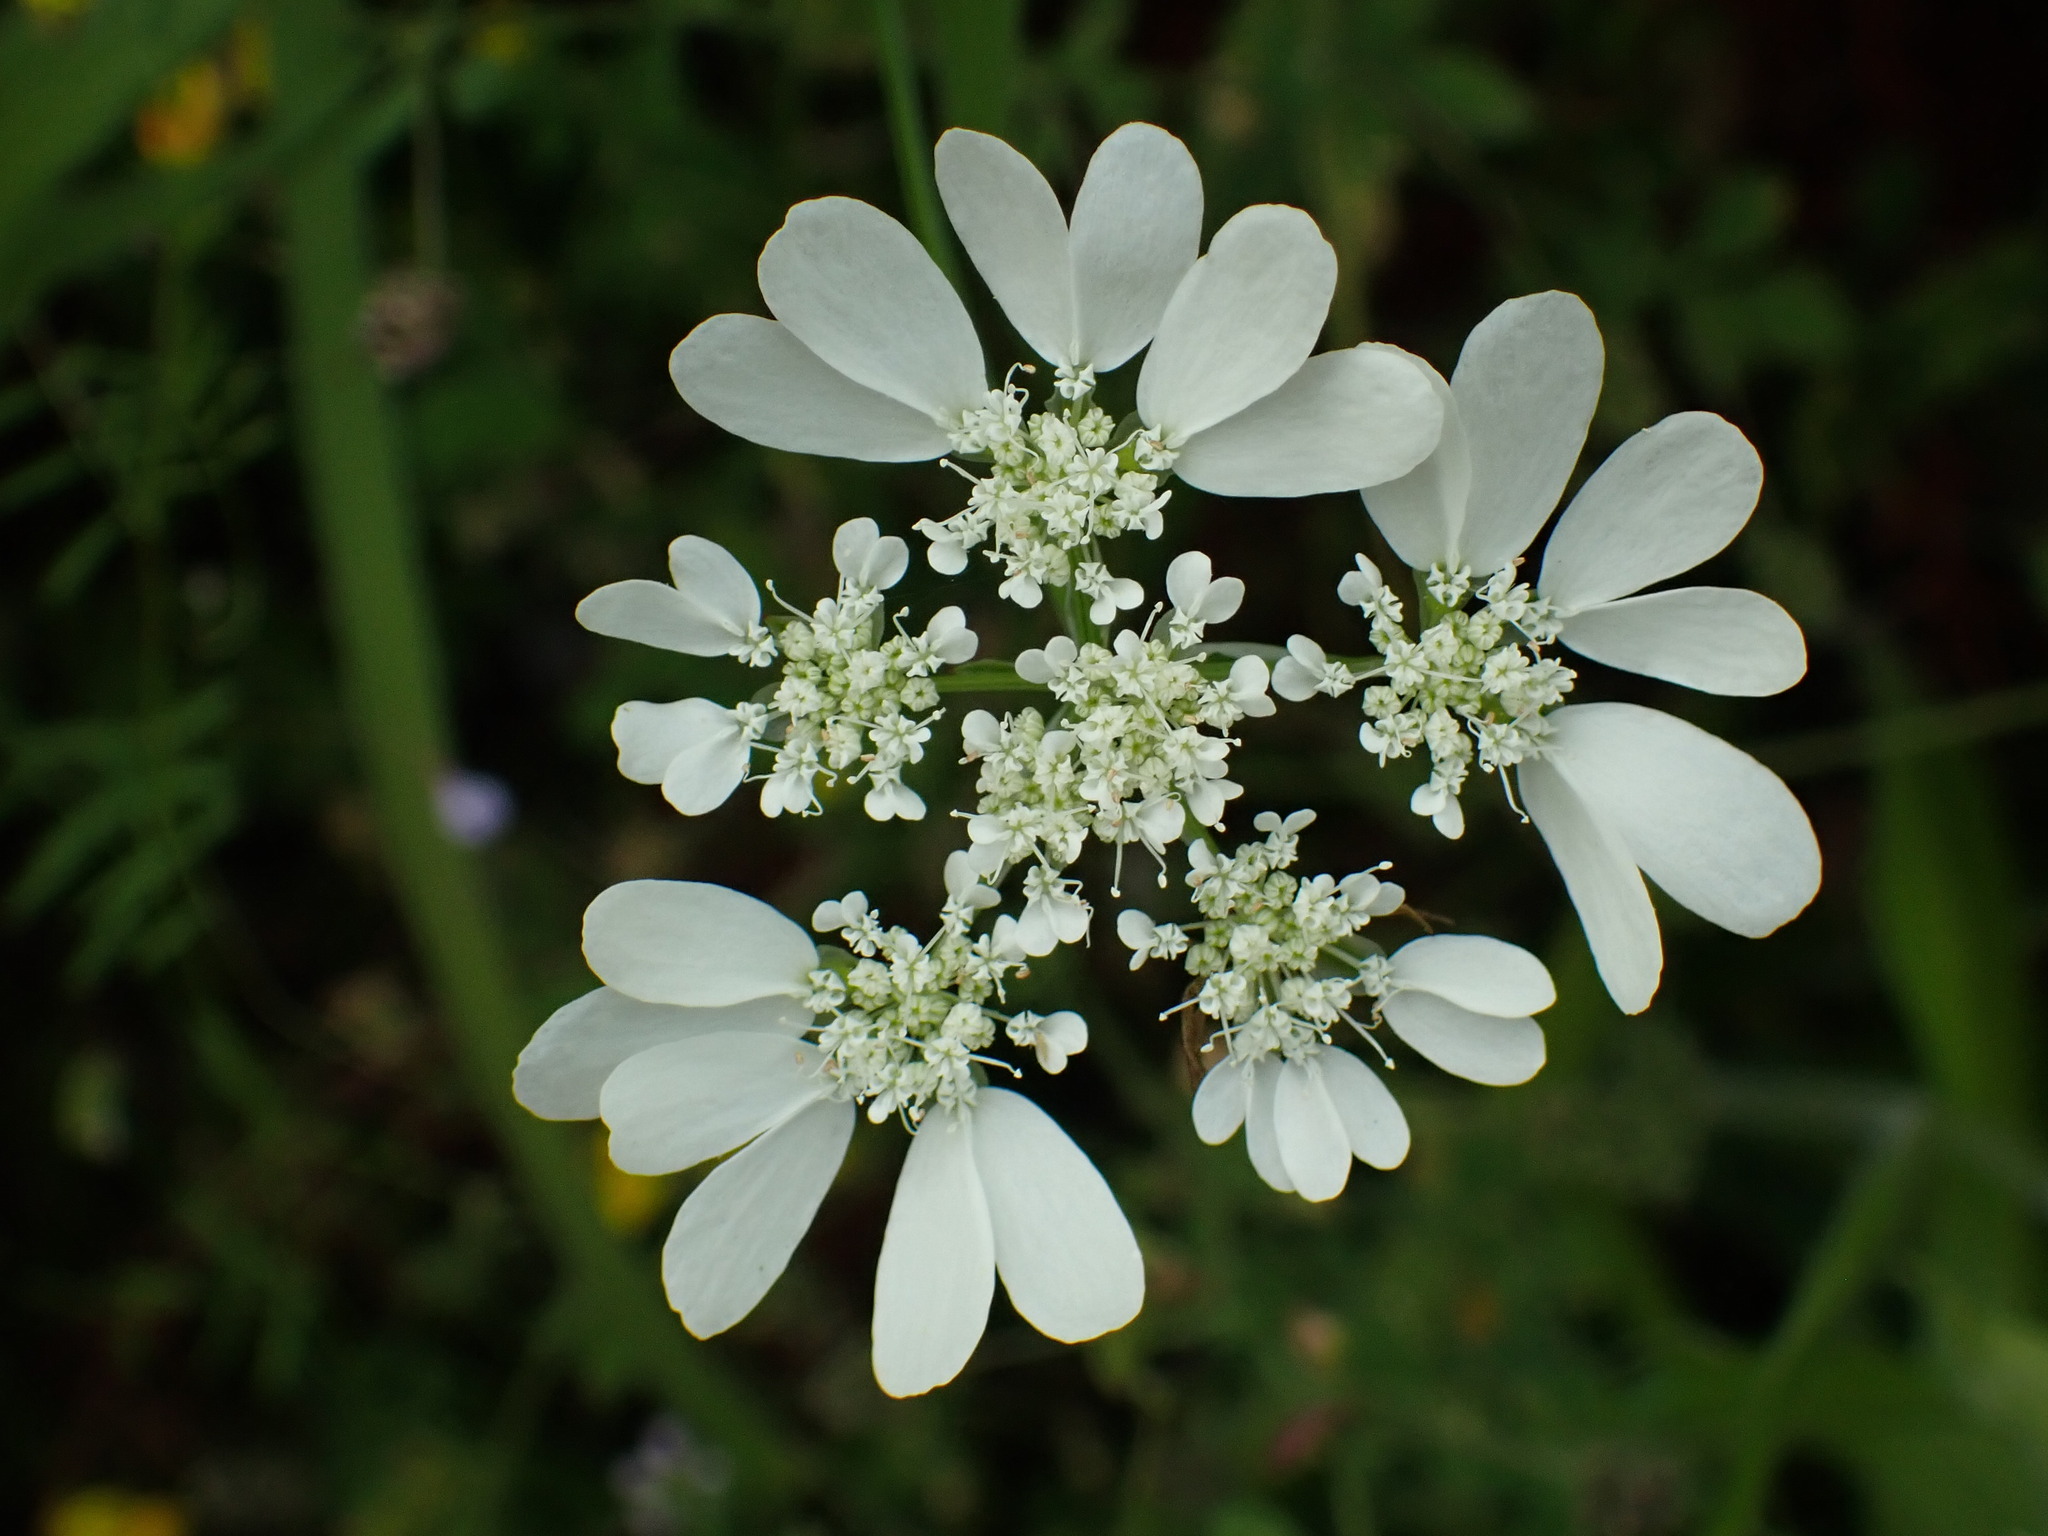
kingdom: Plantae
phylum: Tracheophyta
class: Magnoliopsida
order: Apiales
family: Apiaceae
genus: Orlaya
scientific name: Orlaya grandiflora
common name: White lace flower
